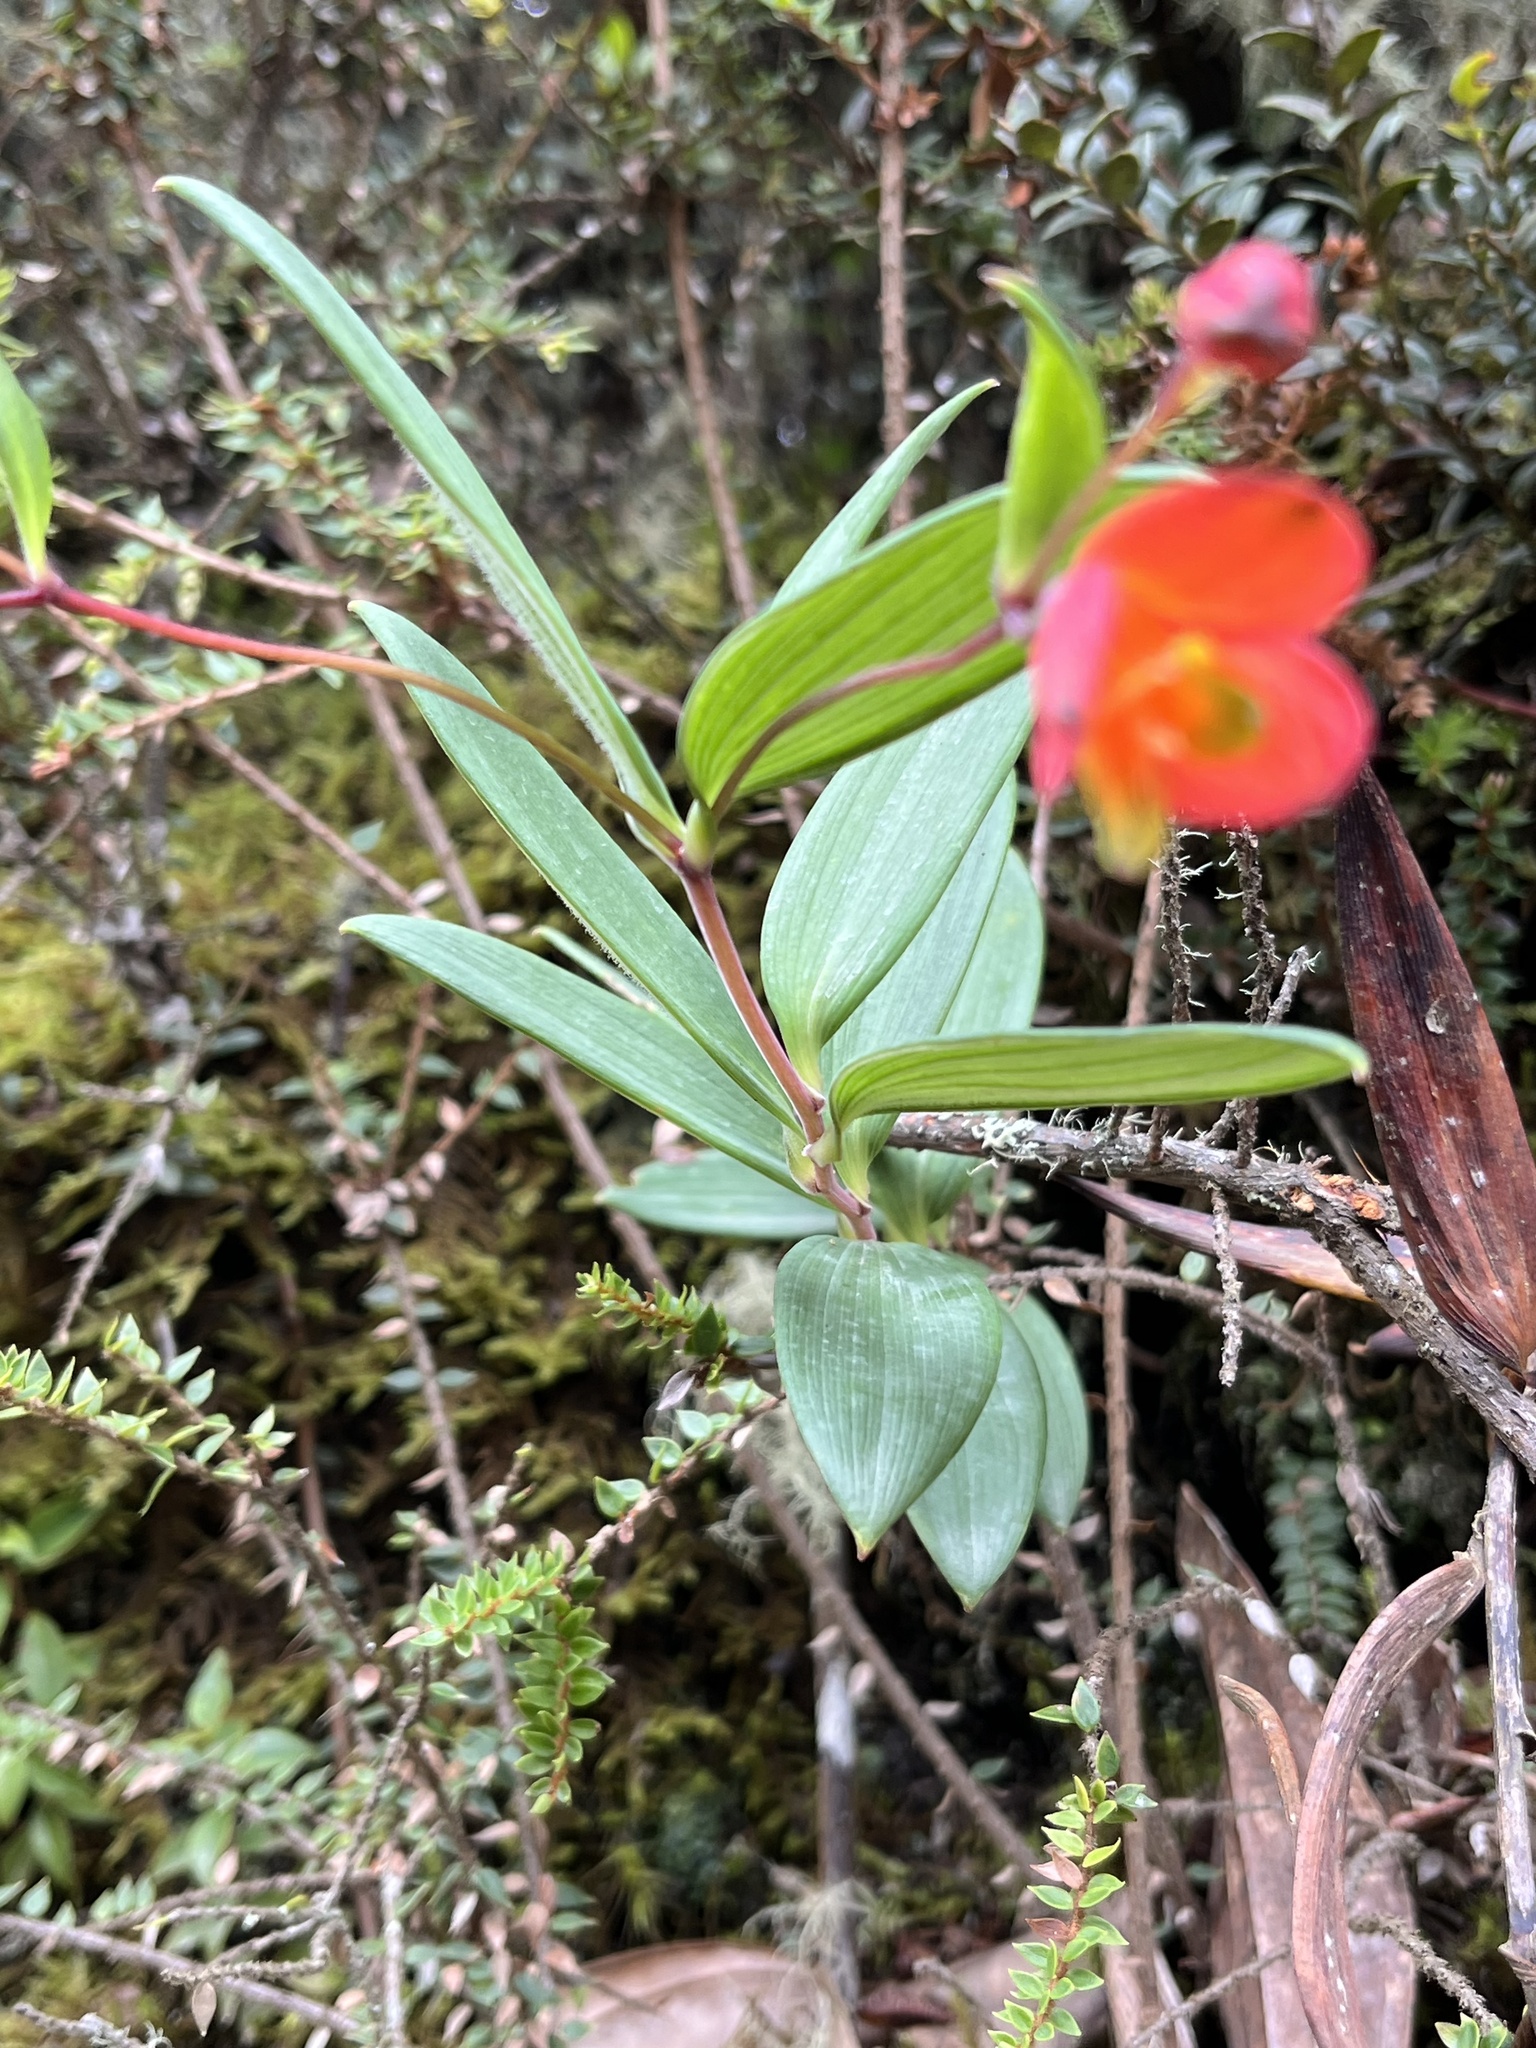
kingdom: Plantae
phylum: Tracheophyta
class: Liliopsida
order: Liliales
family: Alstroemeriaceae
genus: Bomarea
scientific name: Bomarea pauciflora
